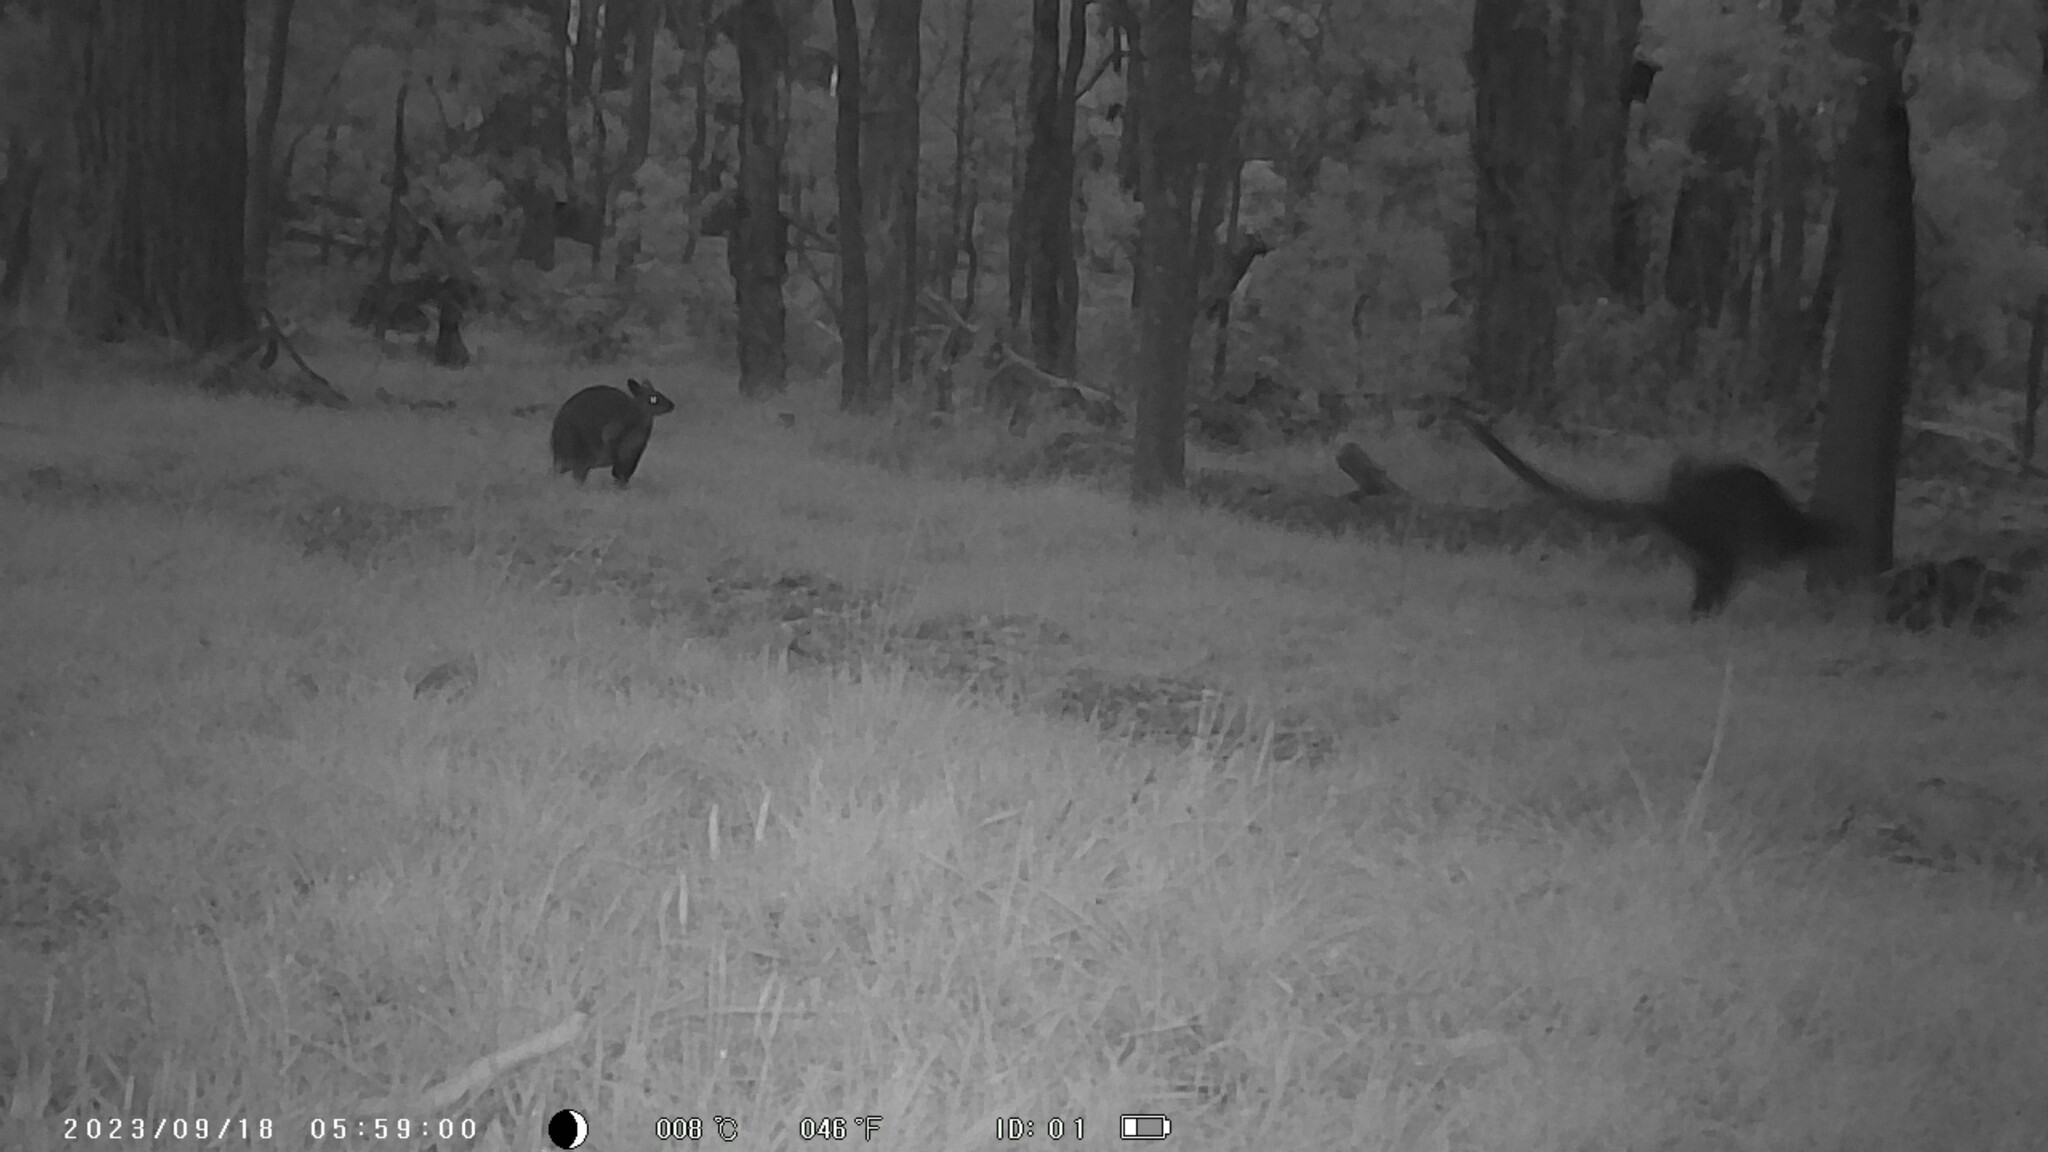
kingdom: Animalia
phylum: Chordata
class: Mammalia
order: Diprotodontia
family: Macropodidae
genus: Wallabia
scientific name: Wallabia bicolor
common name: Swamp wallaby
